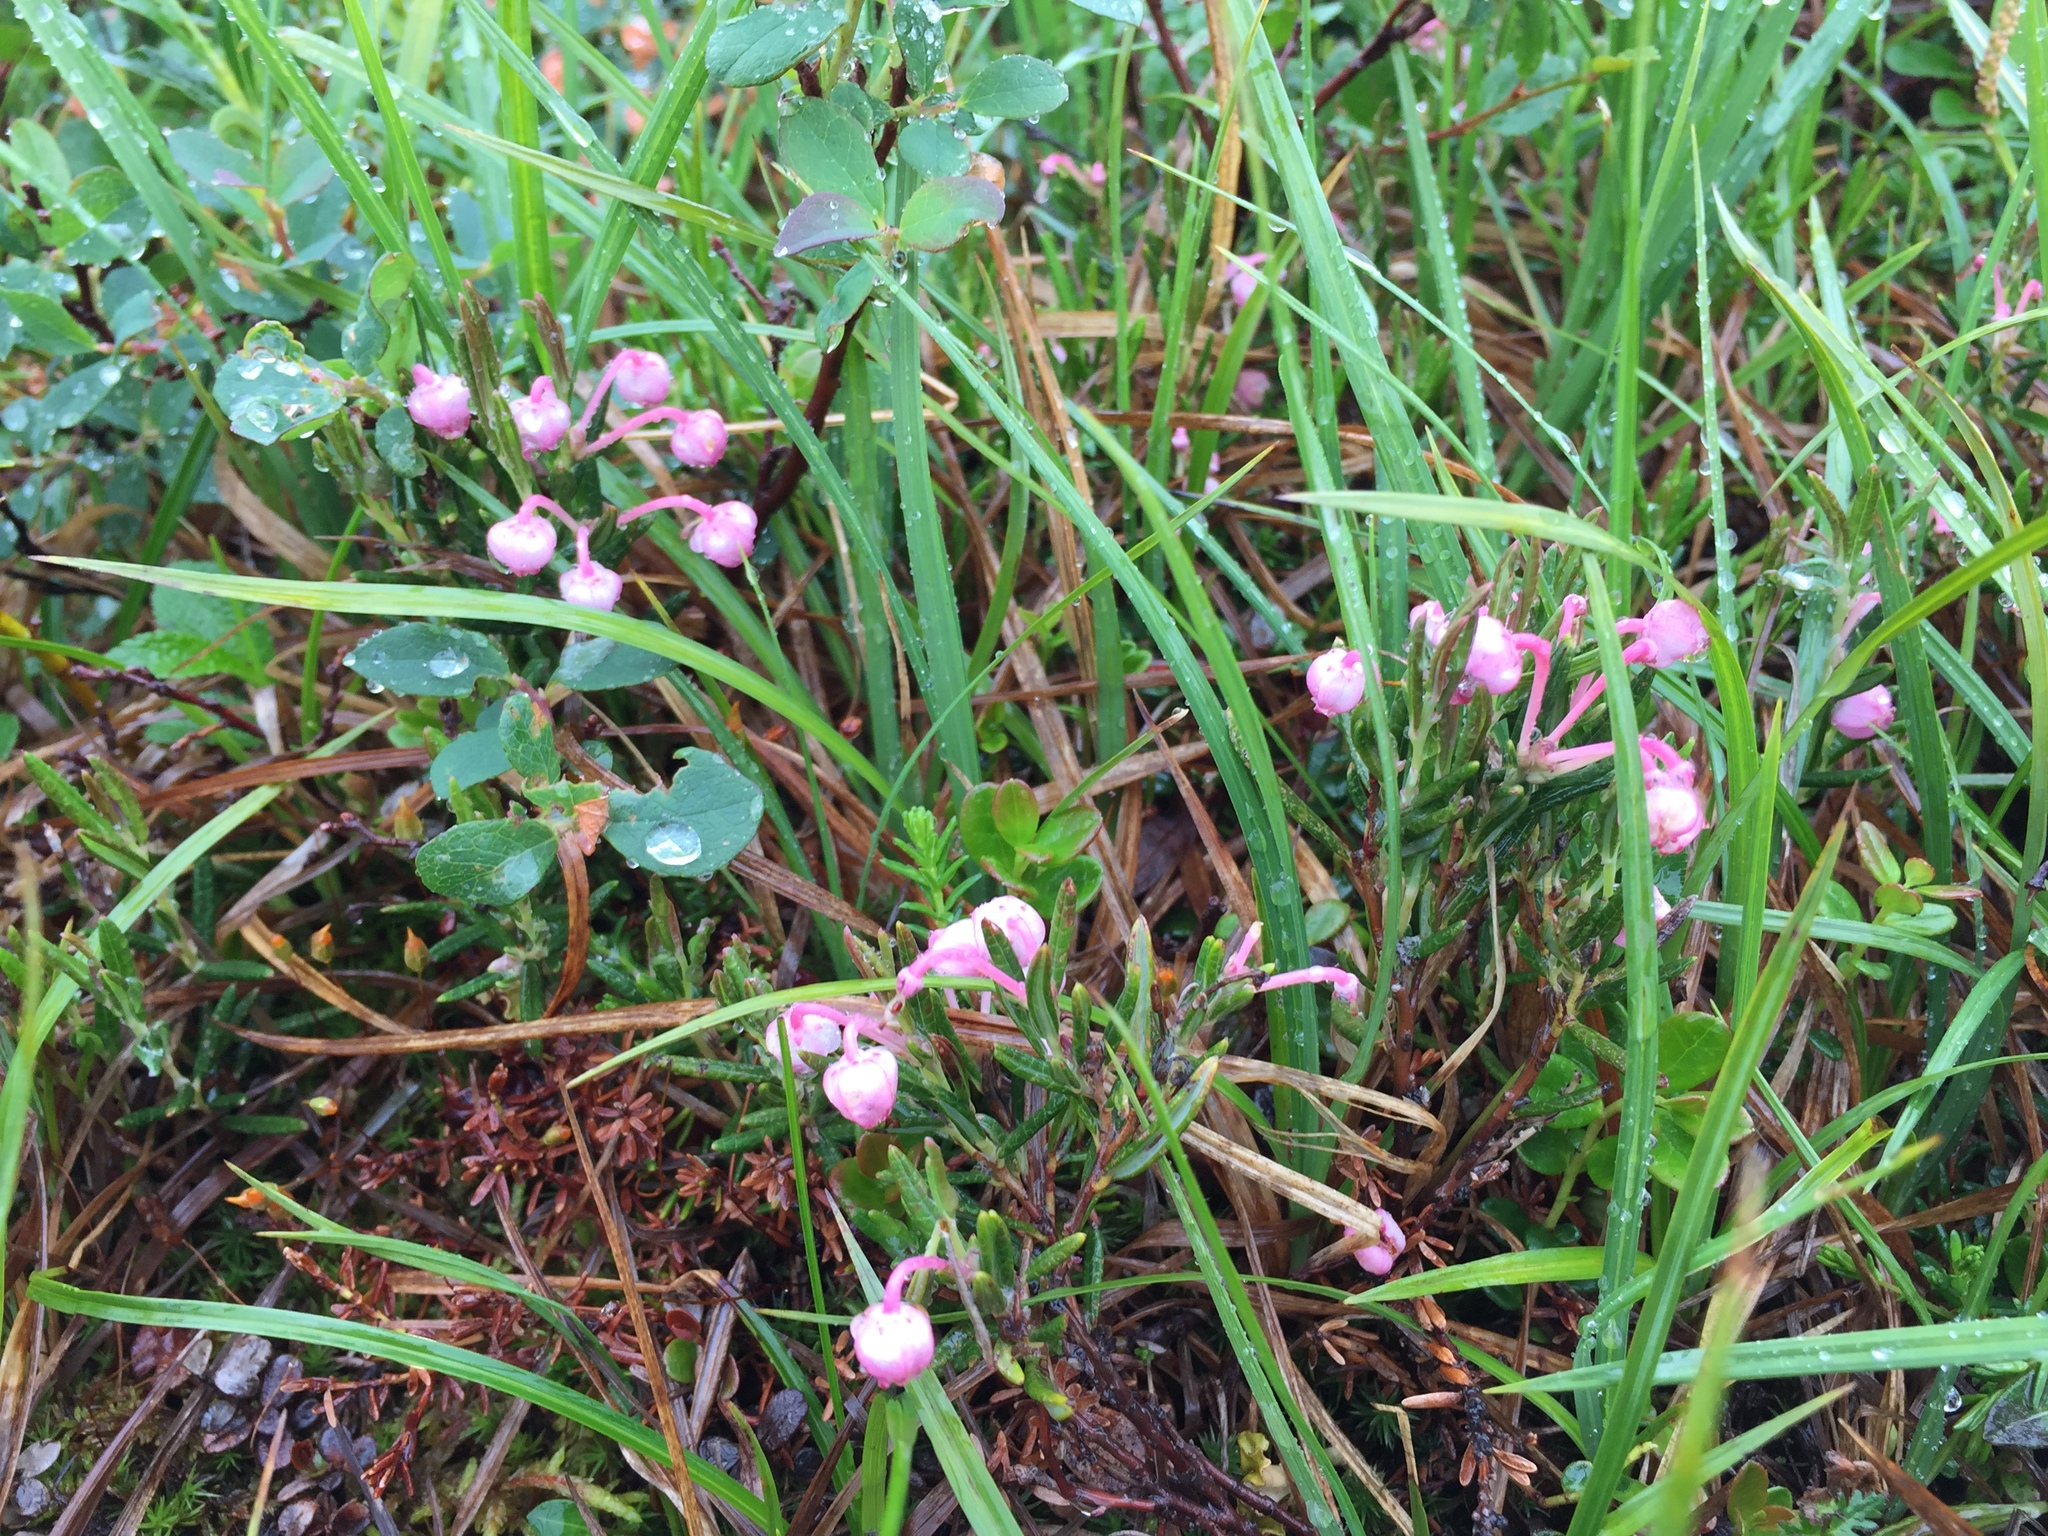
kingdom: Plantae
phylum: Tracheophyta
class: Magnoliopsida
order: Ericales
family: Ericaceae
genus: Andromeda
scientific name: Andromeda polifolia
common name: Bog-rosemary
